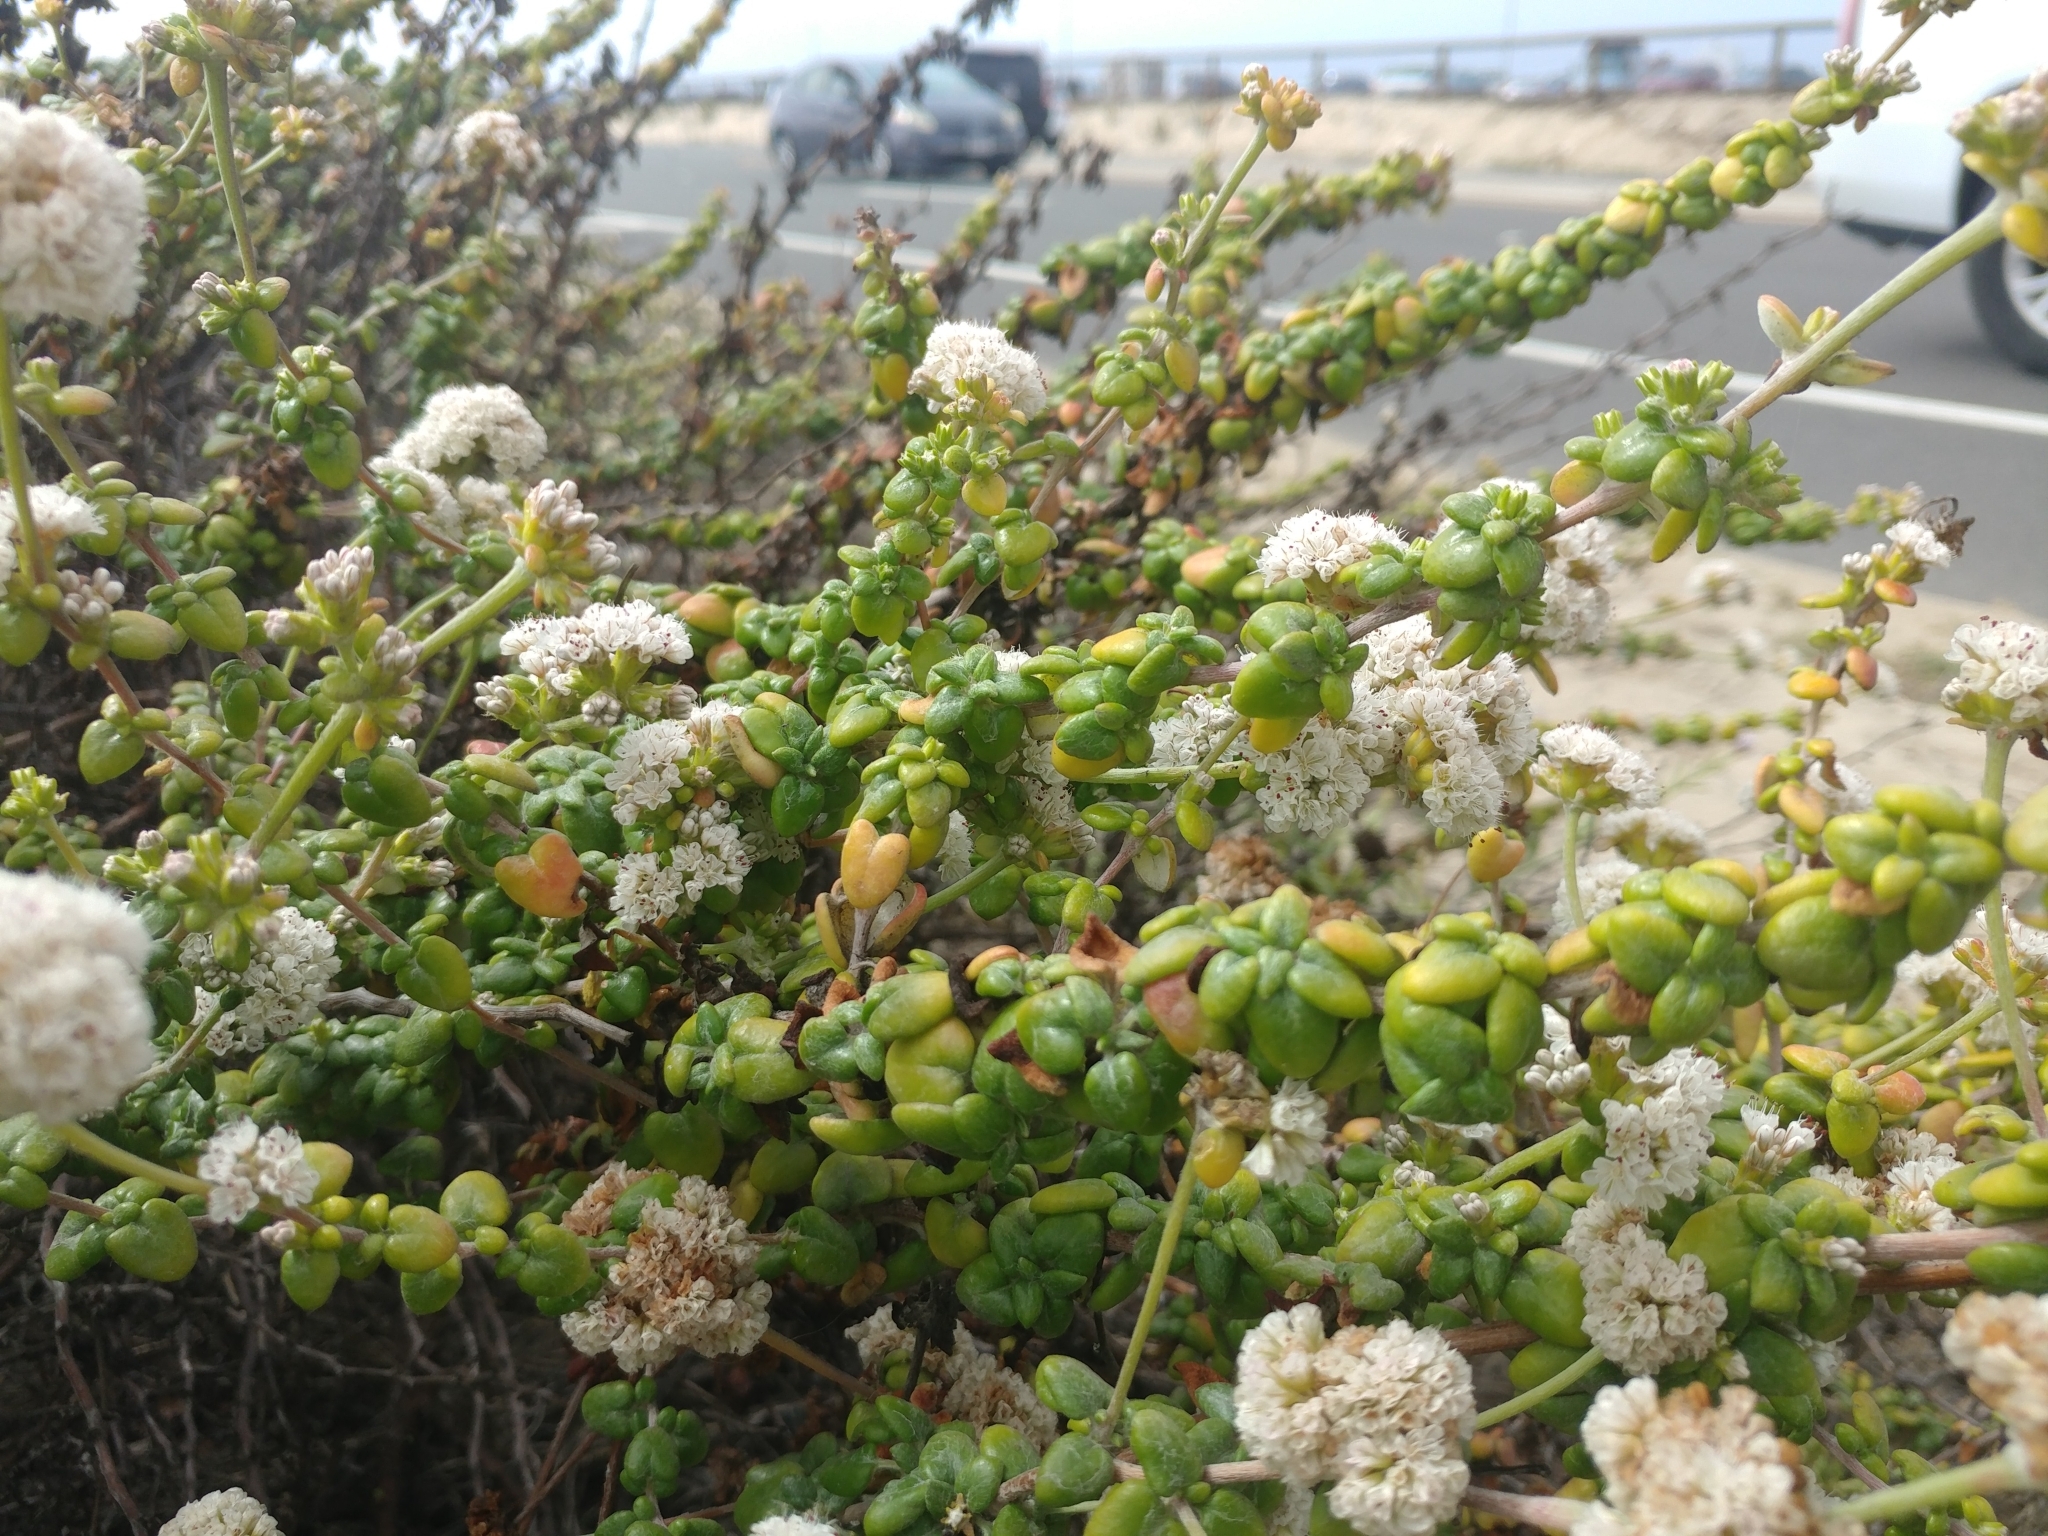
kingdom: Plantae
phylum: Tracheophyta
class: Magnoliopsida
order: Caryophyllales
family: Polygonaceae
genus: Eriogonum
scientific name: Eriogonum parvifolium
